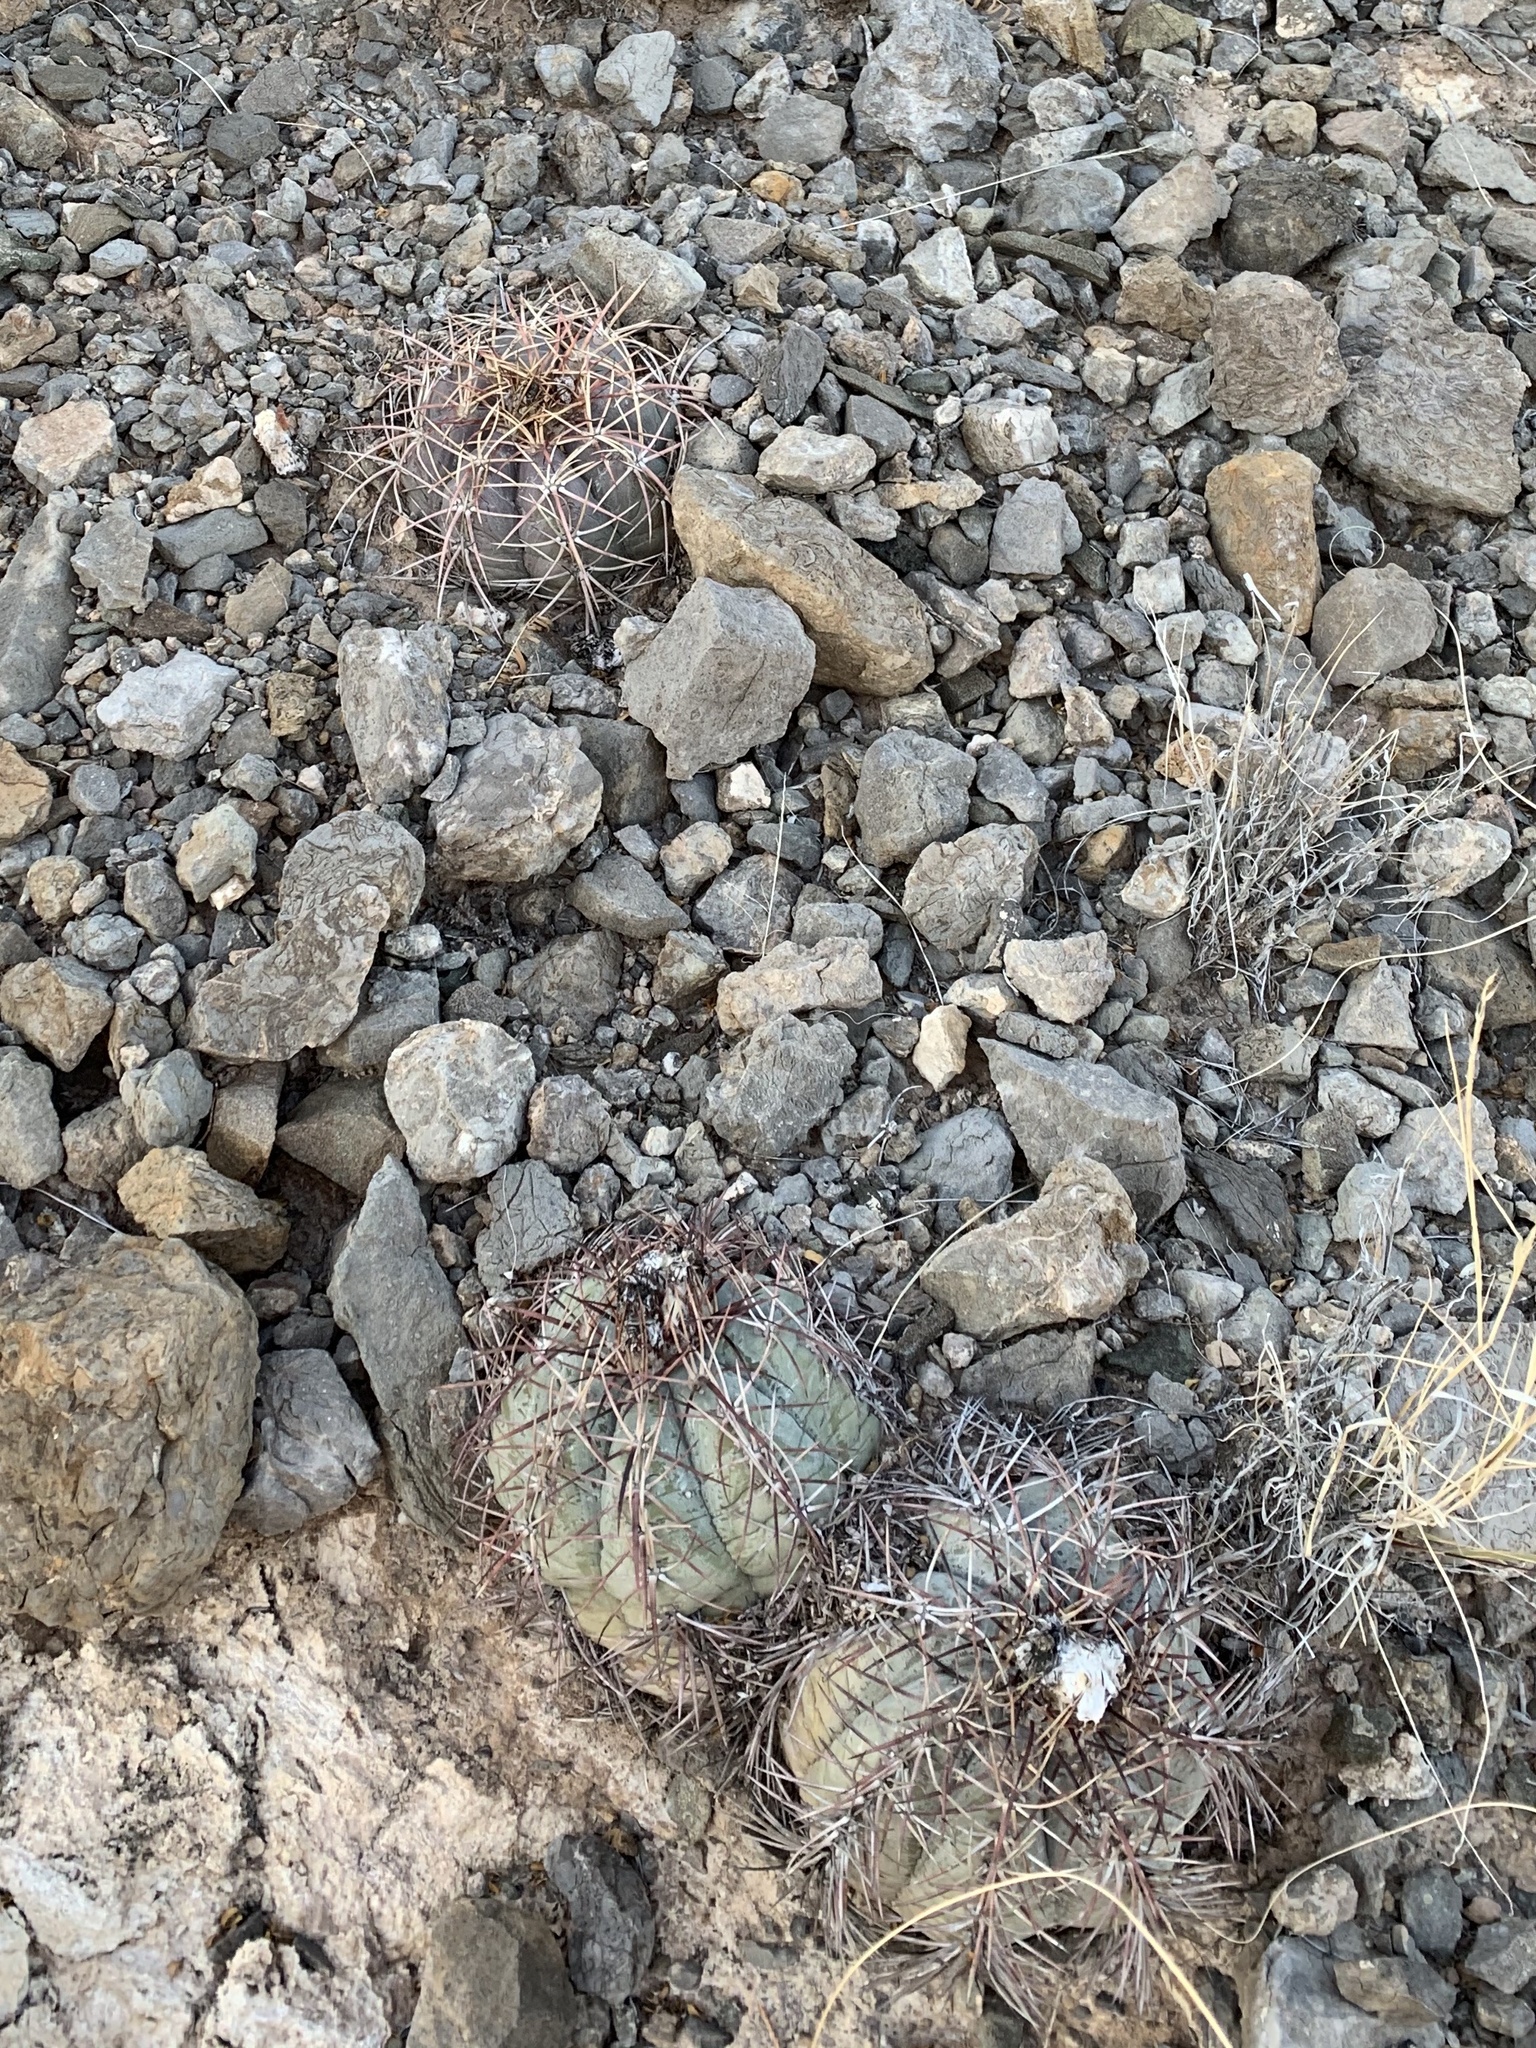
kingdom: Plantae
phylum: Tracheophyta
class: Magnoliopsida
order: Caryophyllales
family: Cactaceae
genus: Echinocactus
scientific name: Echinocactus horizonthalonius
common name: Devilshead
